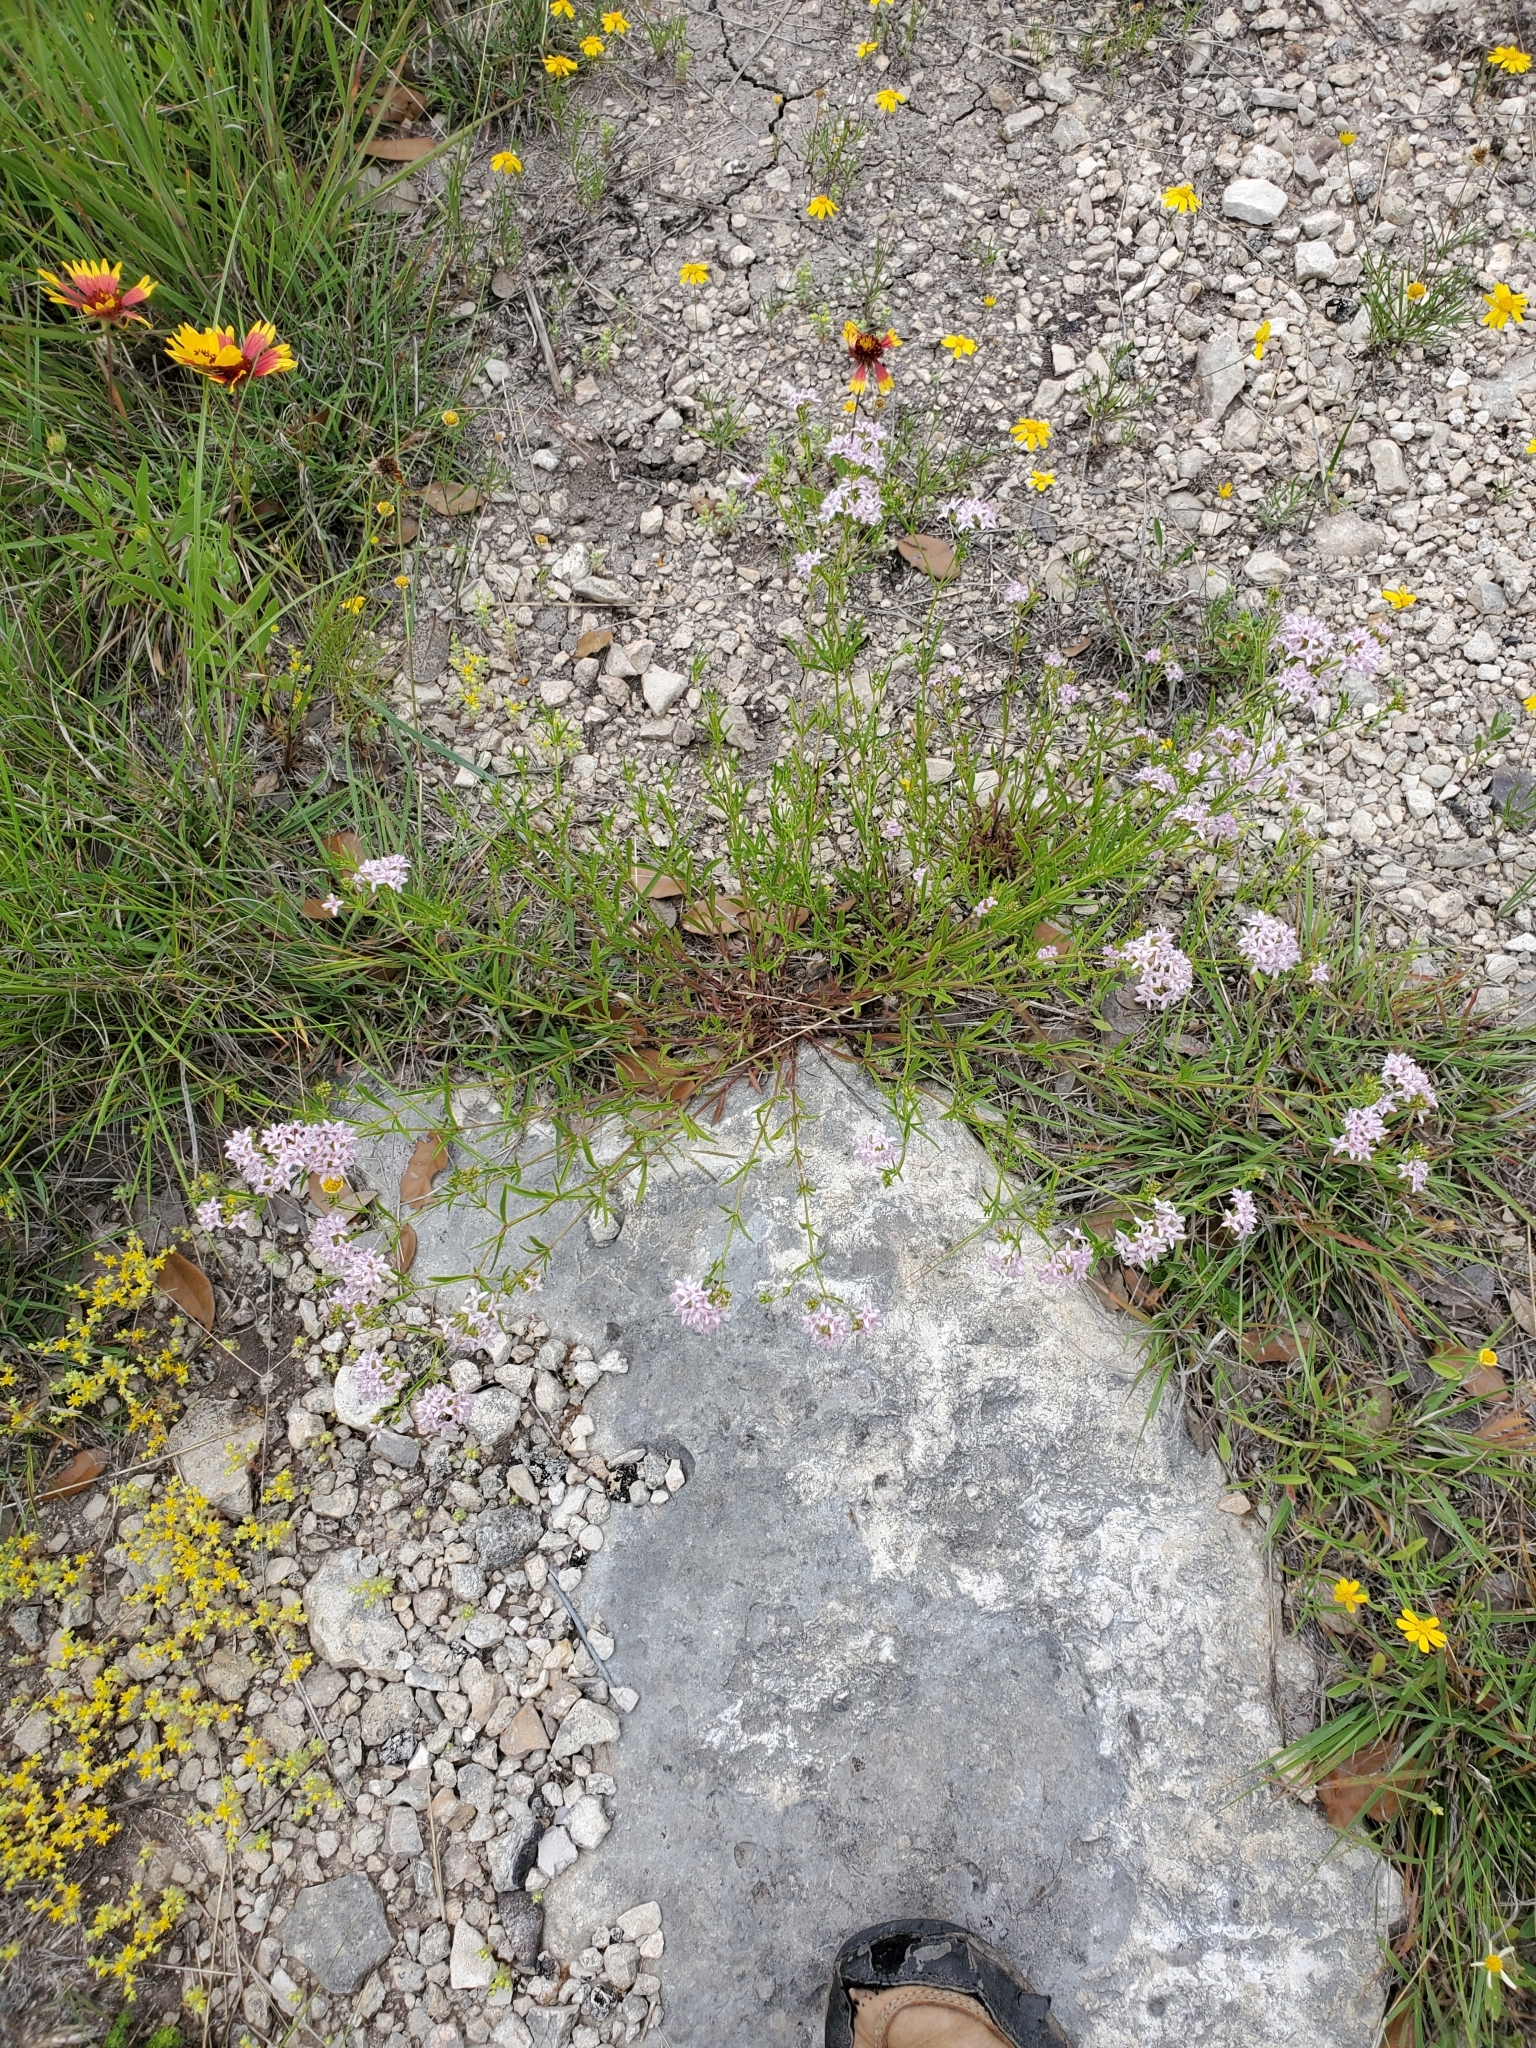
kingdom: Plantae
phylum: Tracheophyta
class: Magnoliopsida
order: Gentianales
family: Rubiaceae
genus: Stenaria
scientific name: Stenaria nigricans
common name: Diamondflowers
